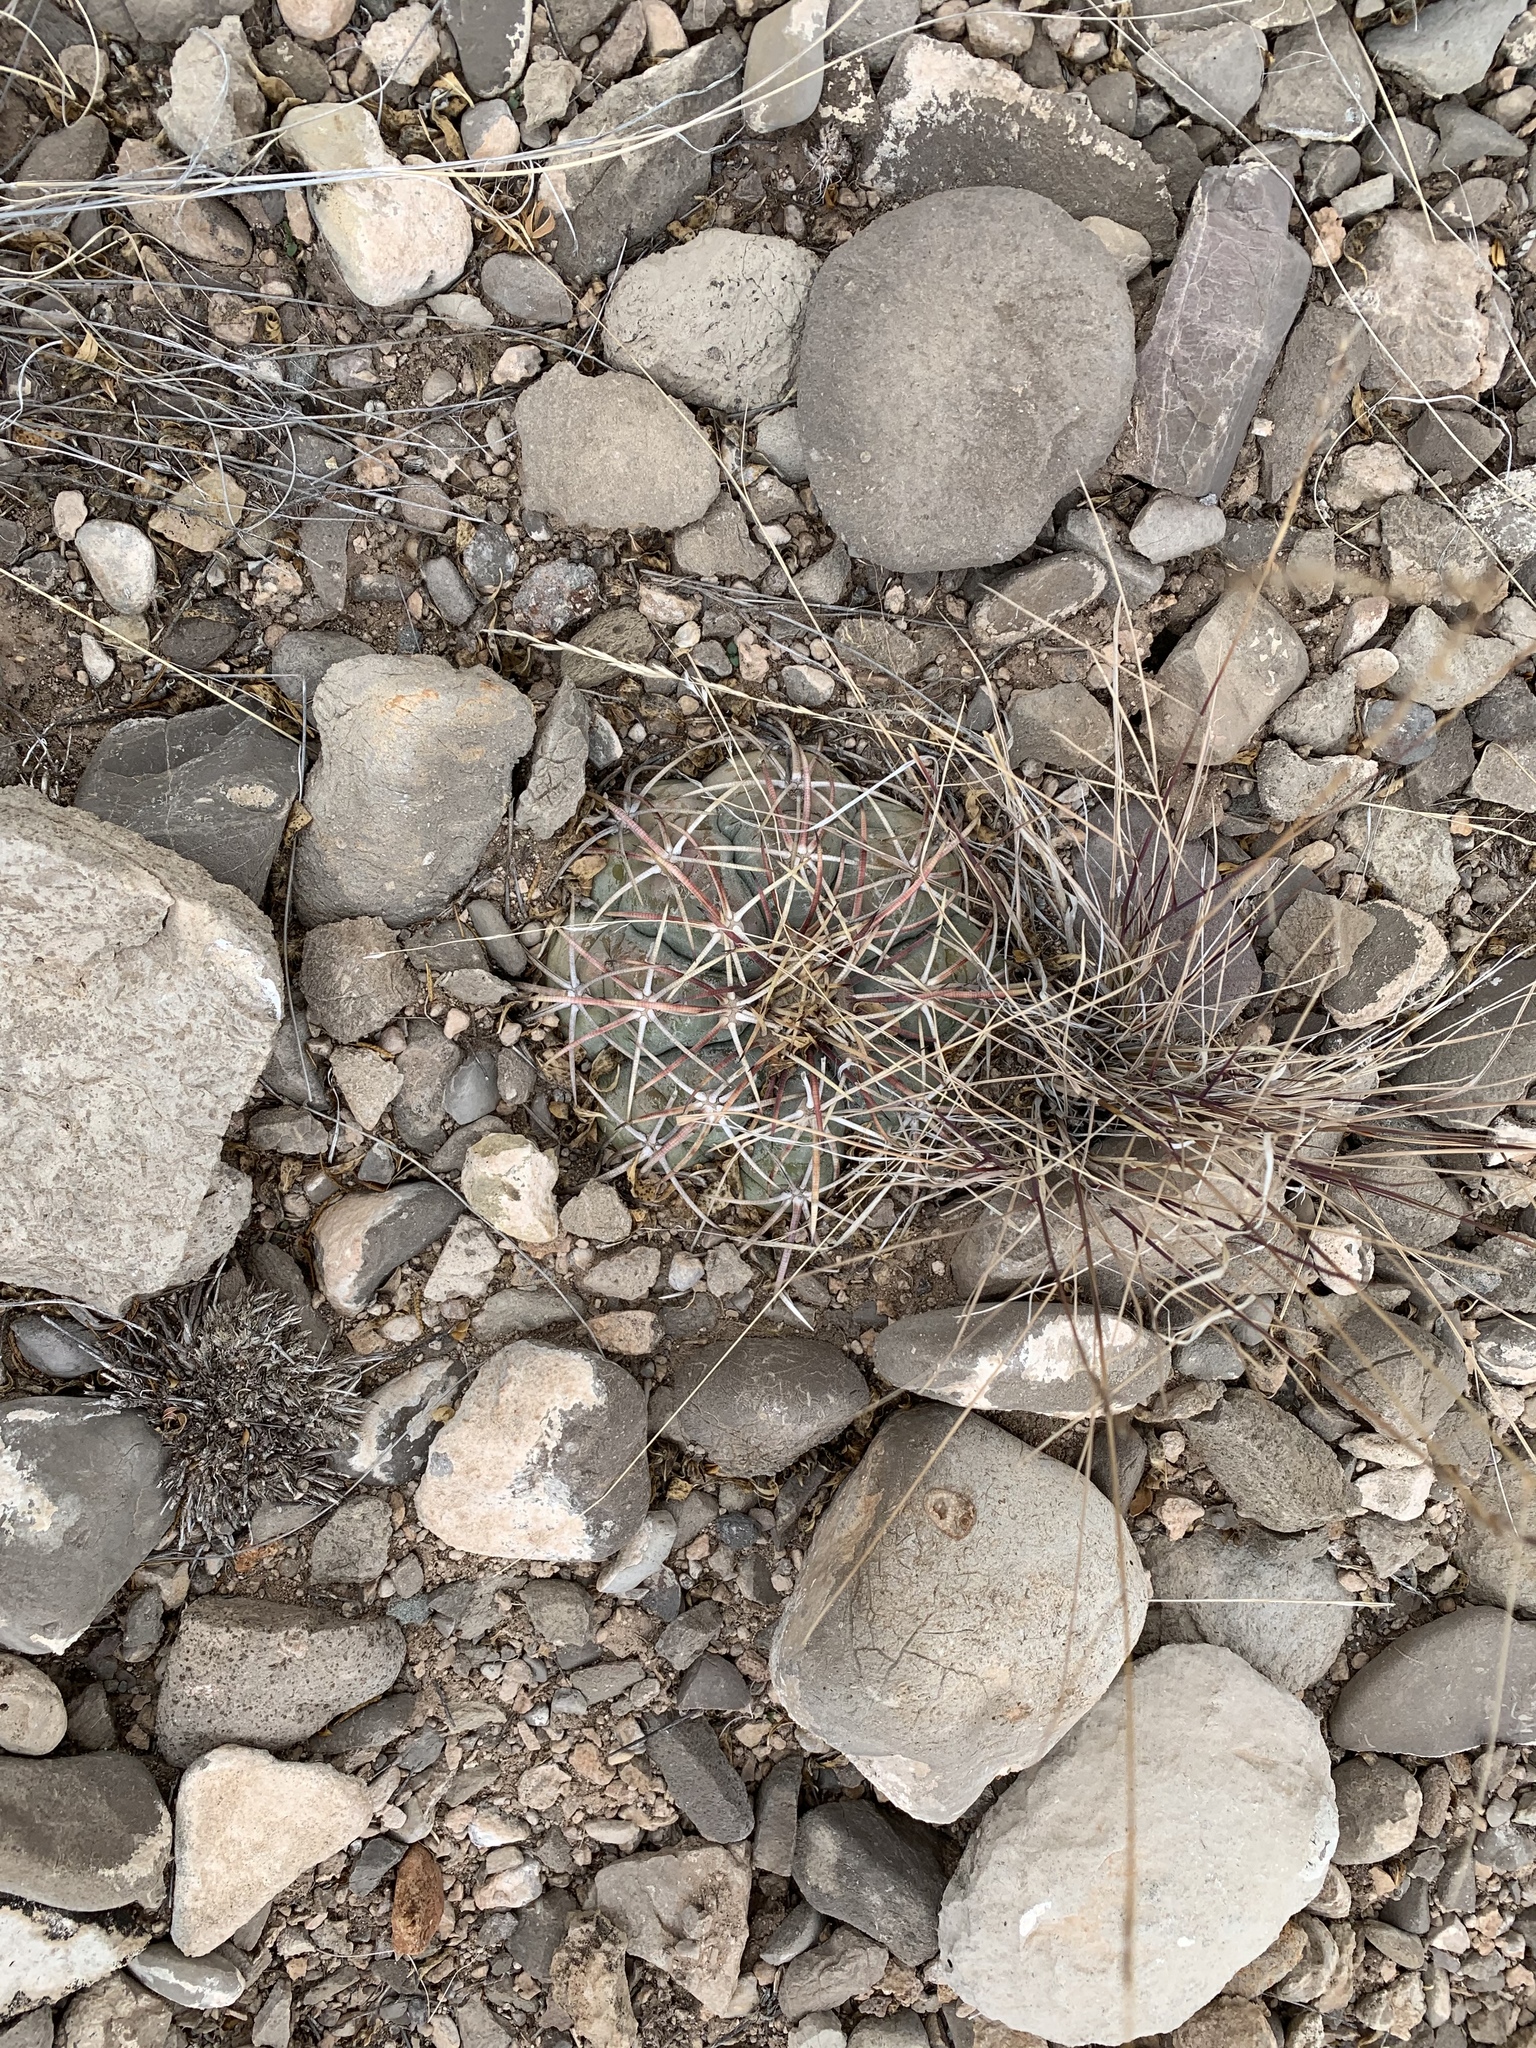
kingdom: Plantae
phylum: Tracheophyta
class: Magnoliopsida
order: Caryophyllales
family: Cactaceae
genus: Echinocactus
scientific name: Echinocactus horizonthalonius
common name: Devilshead
